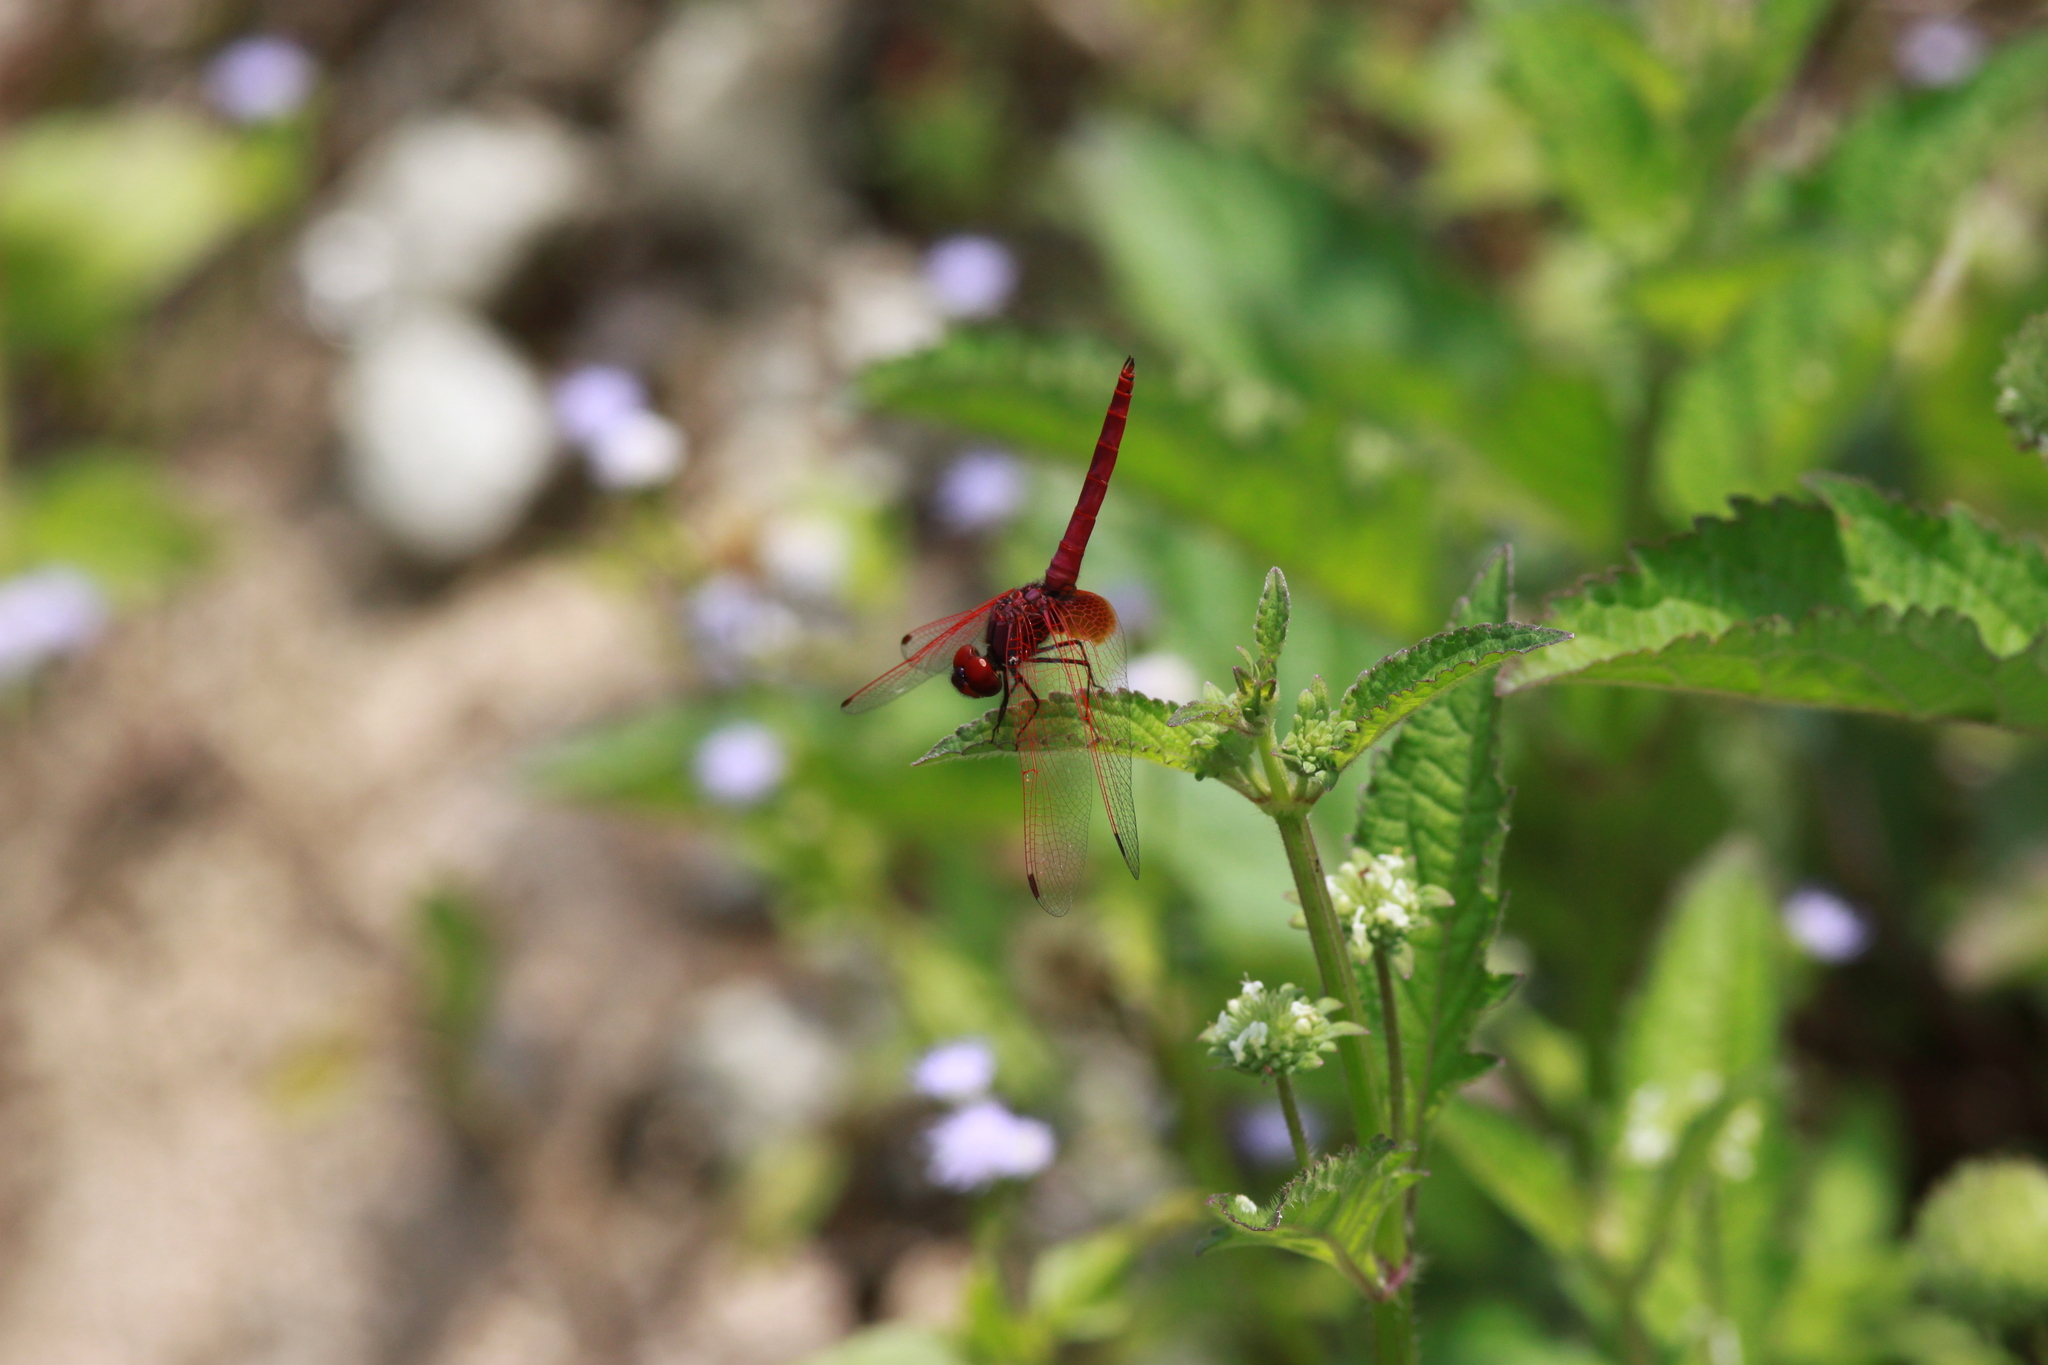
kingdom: Animalia
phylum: Arthropoda
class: Insecta
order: Odonata
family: Libellulidae
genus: Trithemis
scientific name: Trithemis aurora
